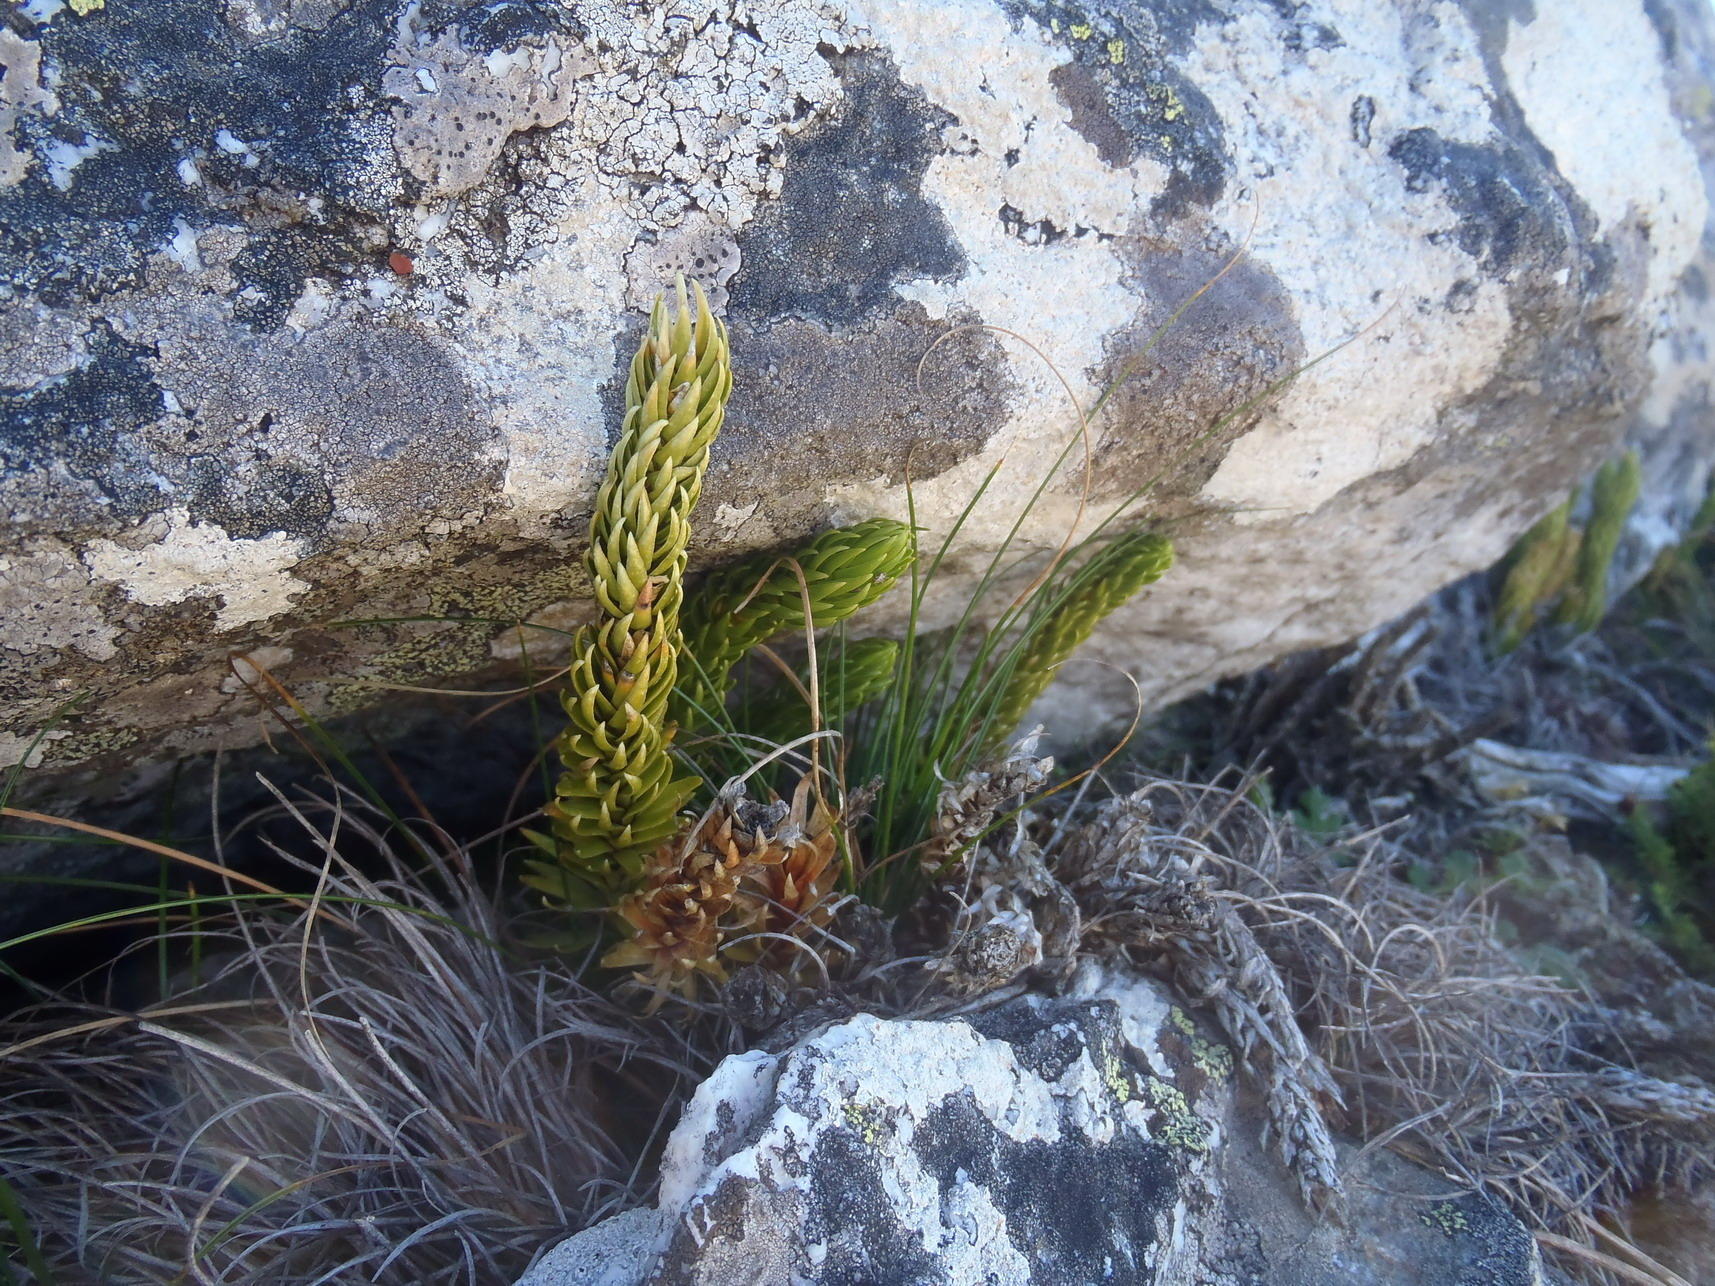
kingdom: Plantae
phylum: Tracheophyta
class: Lycopodiopsida
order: Lycopodiales
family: Lycopodiaceae
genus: Phlegmariurus
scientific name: Phlegmariurus saururus
